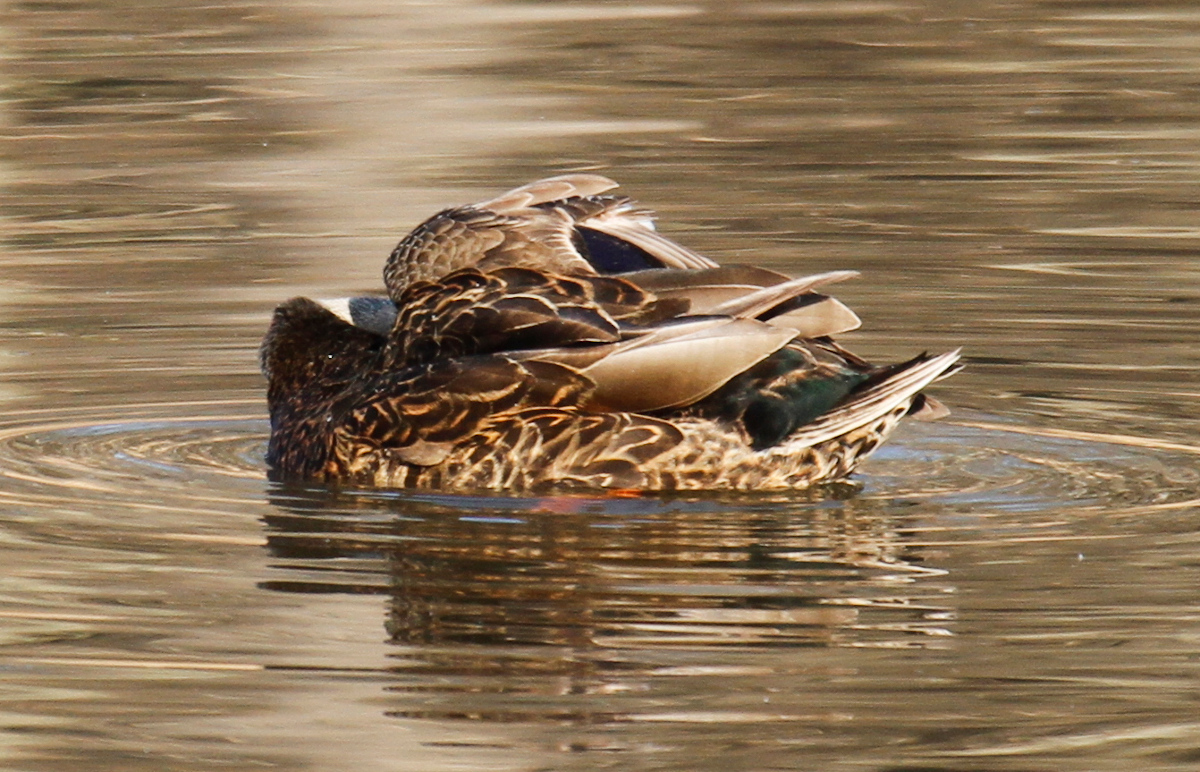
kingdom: Animalia
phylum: Chordata
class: Aves
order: Anseriformes
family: Anatidae
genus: Anas
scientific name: Anas
